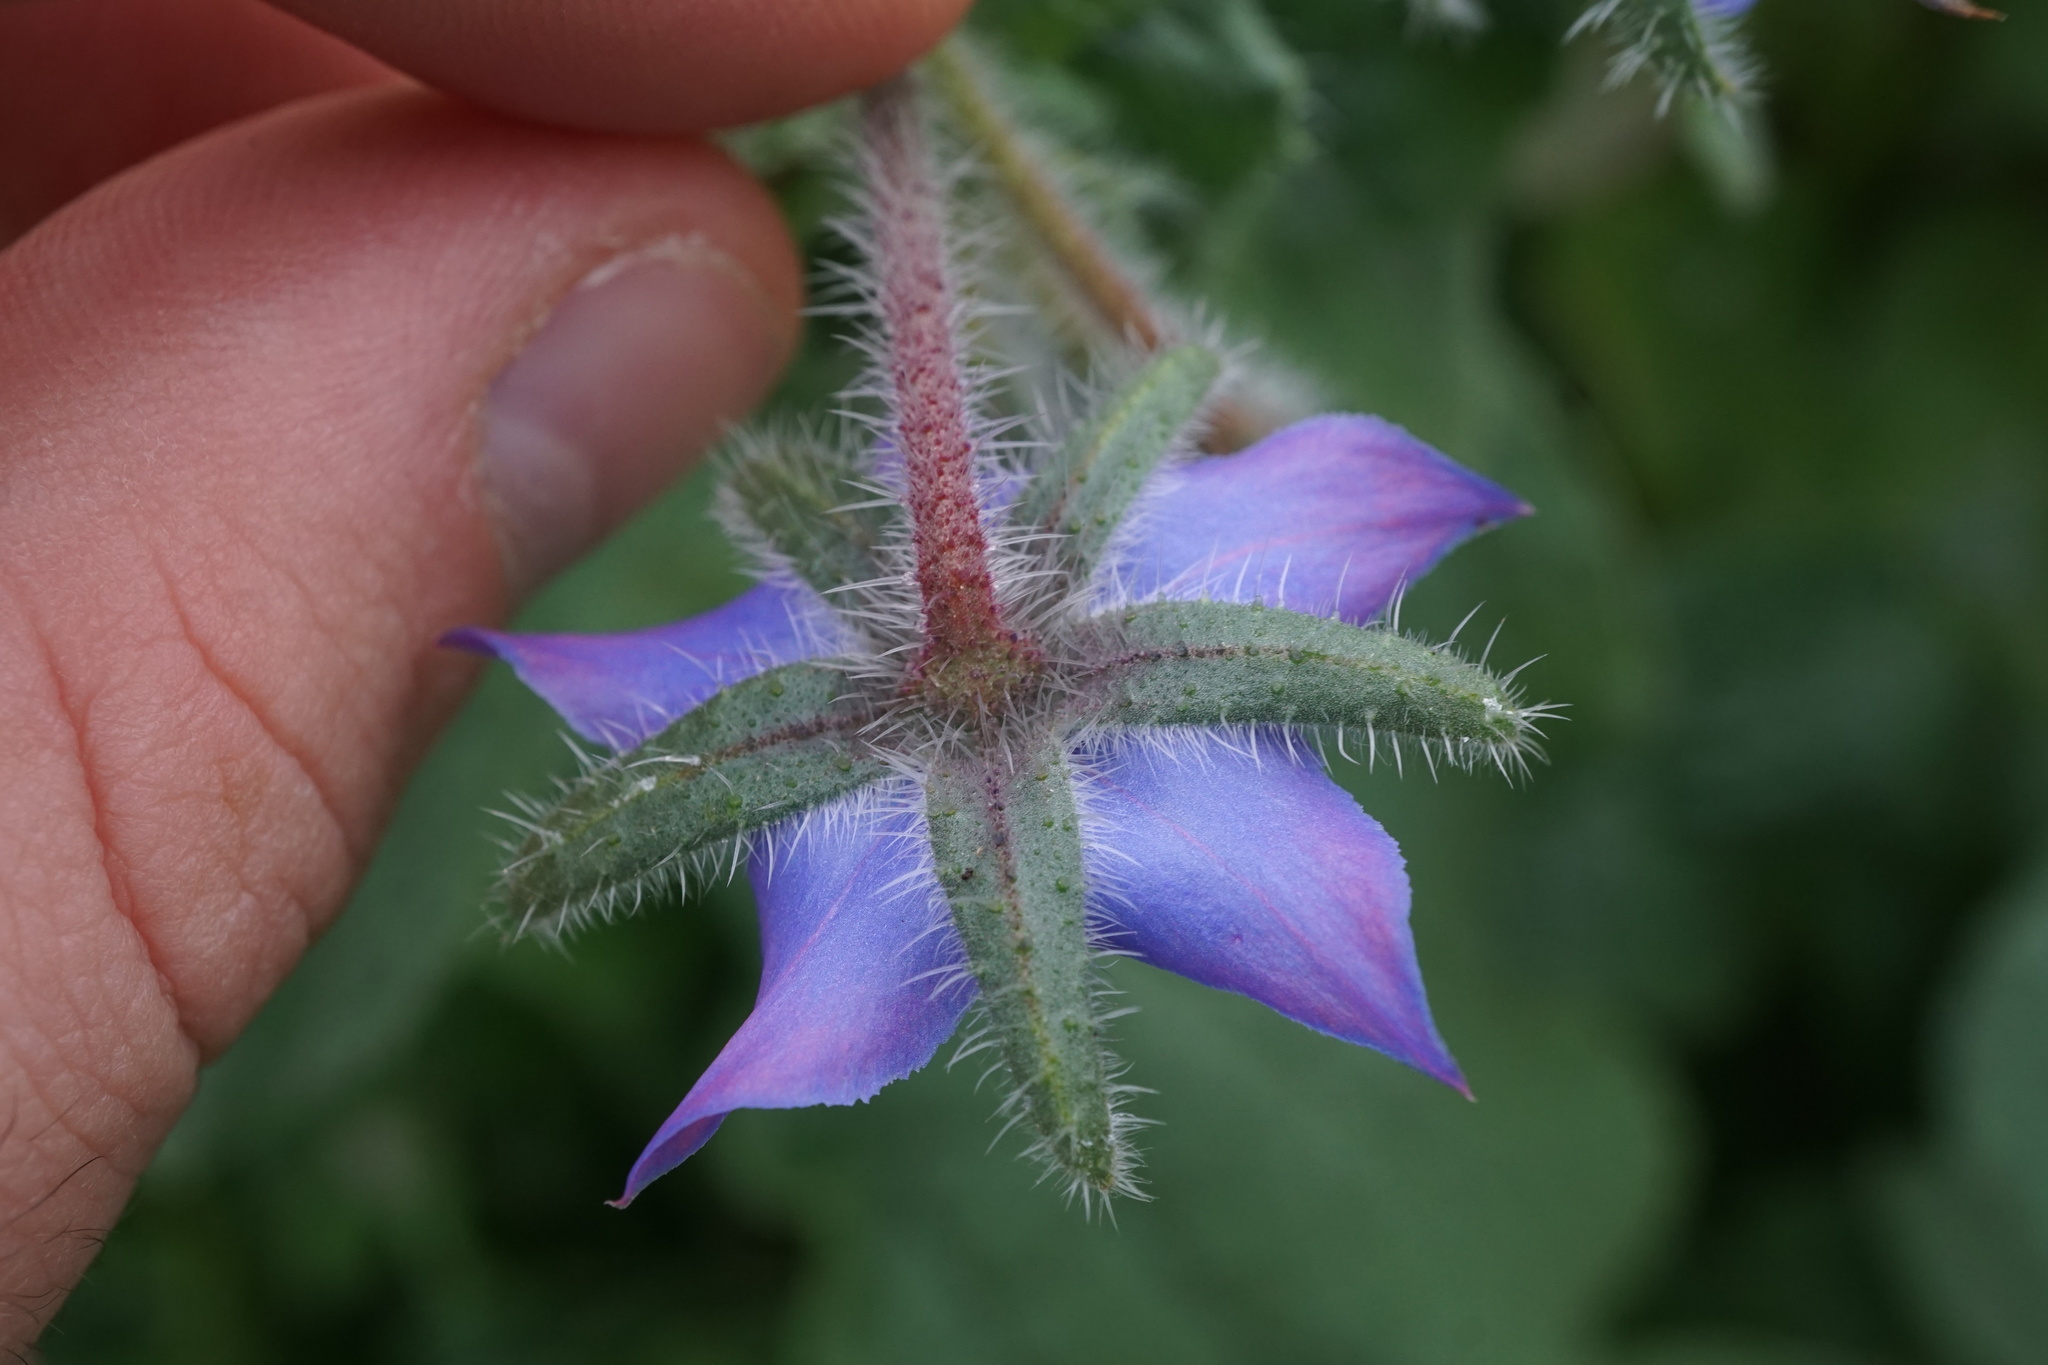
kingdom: Plantae
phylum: Tracheophyta
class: Magnoliopsida
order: Boraginales
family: Boraginaceae
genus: Borago
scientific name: Borago officinalis
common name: Borage
